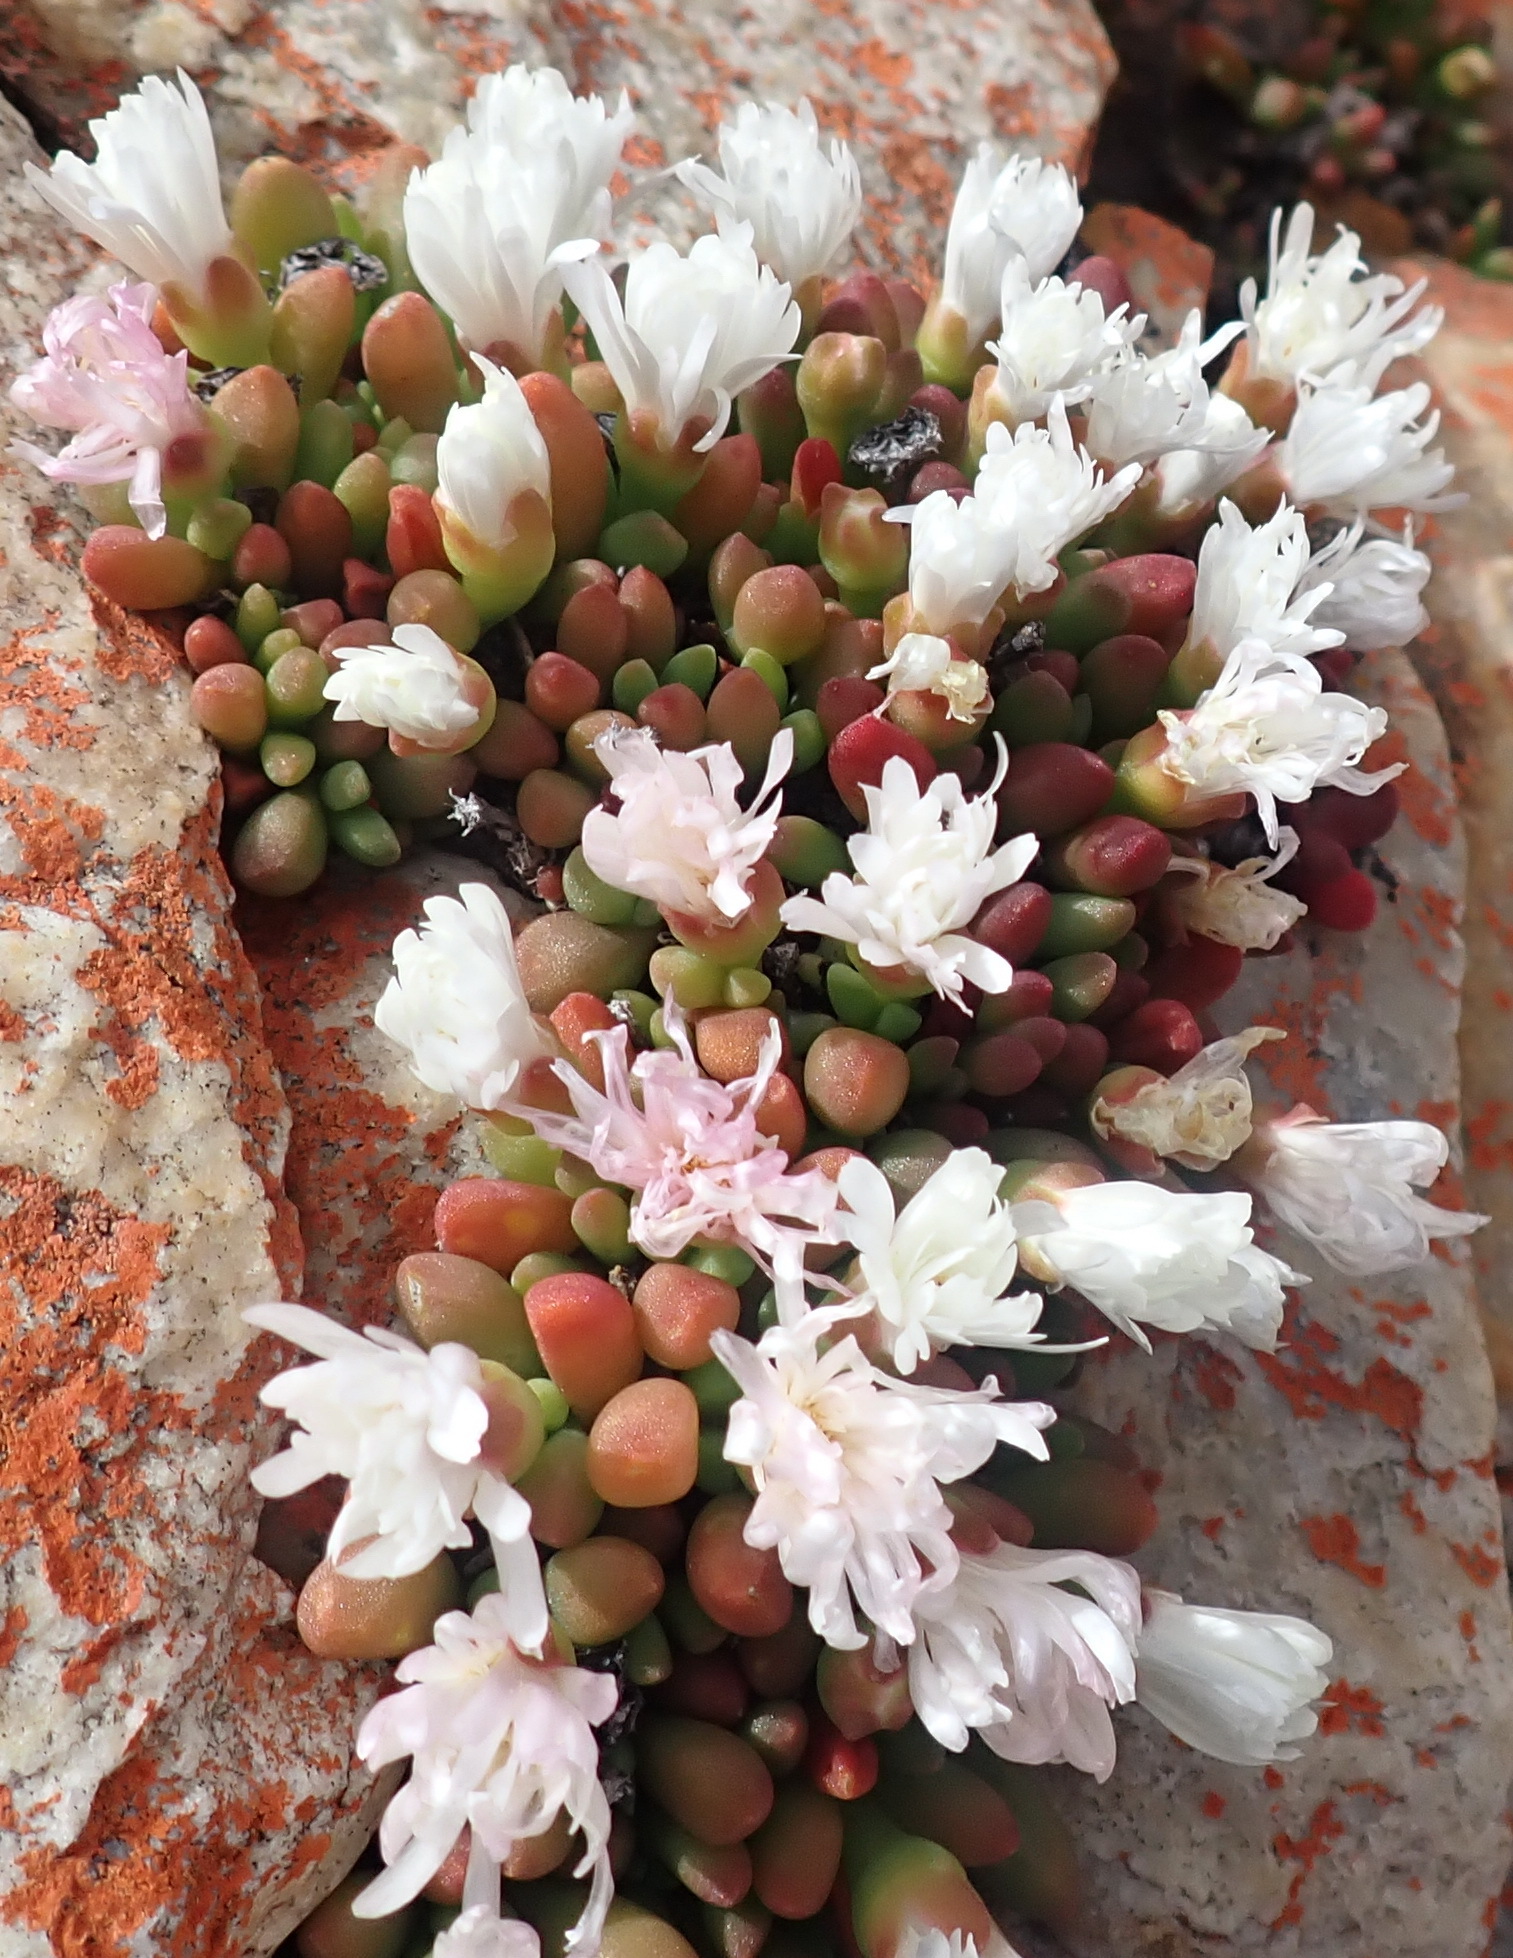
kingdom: Plantae
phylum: Tracheophyta
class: Magnoliopsida
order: Caryophyllales
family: Aizoaceae
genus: Delosperma
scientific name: Delosperma esterhuyseniae
